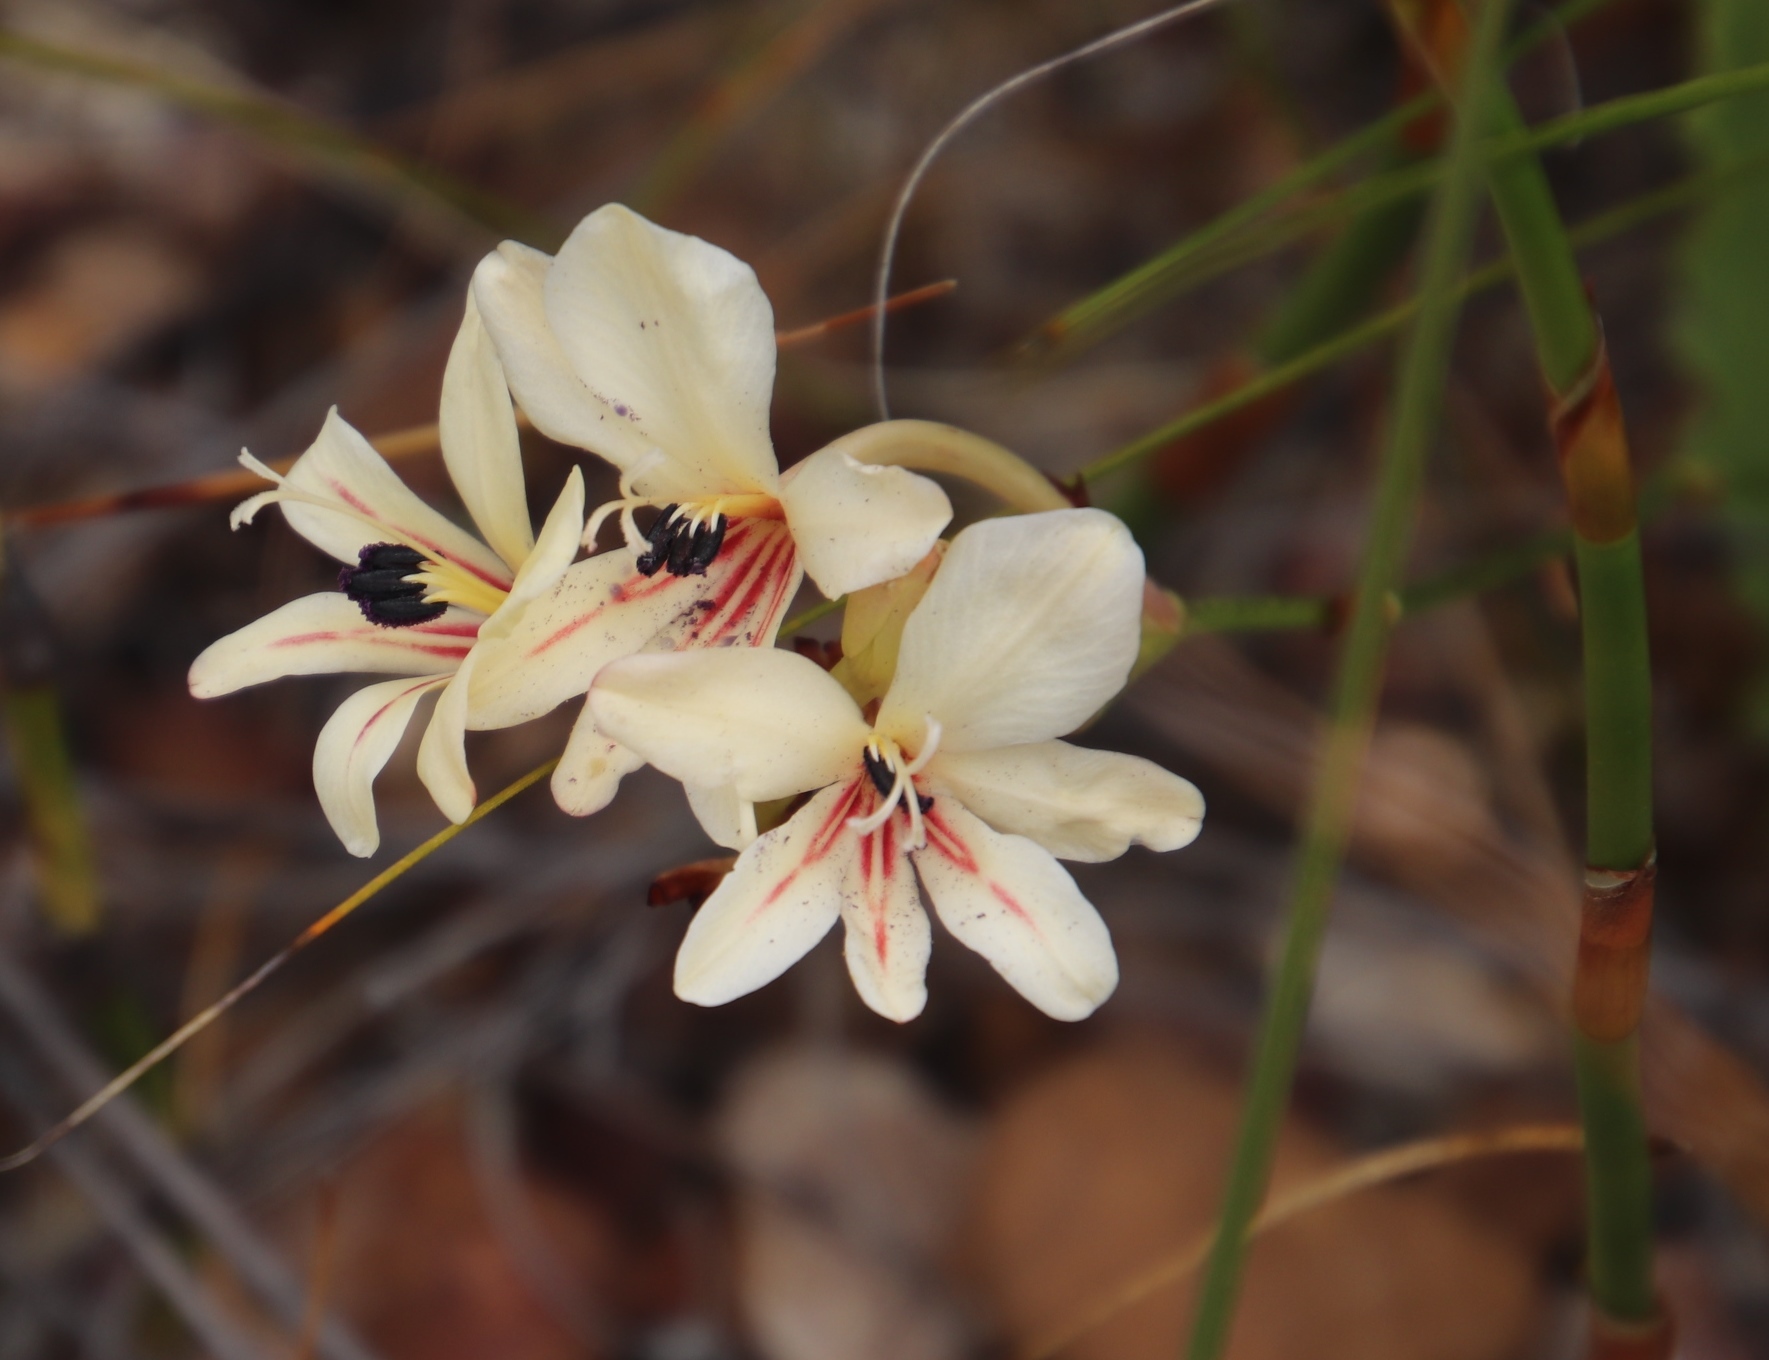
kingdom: Plantae
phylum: Tracheophyta
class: Liliopsida
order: Asparagales
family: Iridaceae
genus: Tritonia
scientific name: Tritonia undulata
